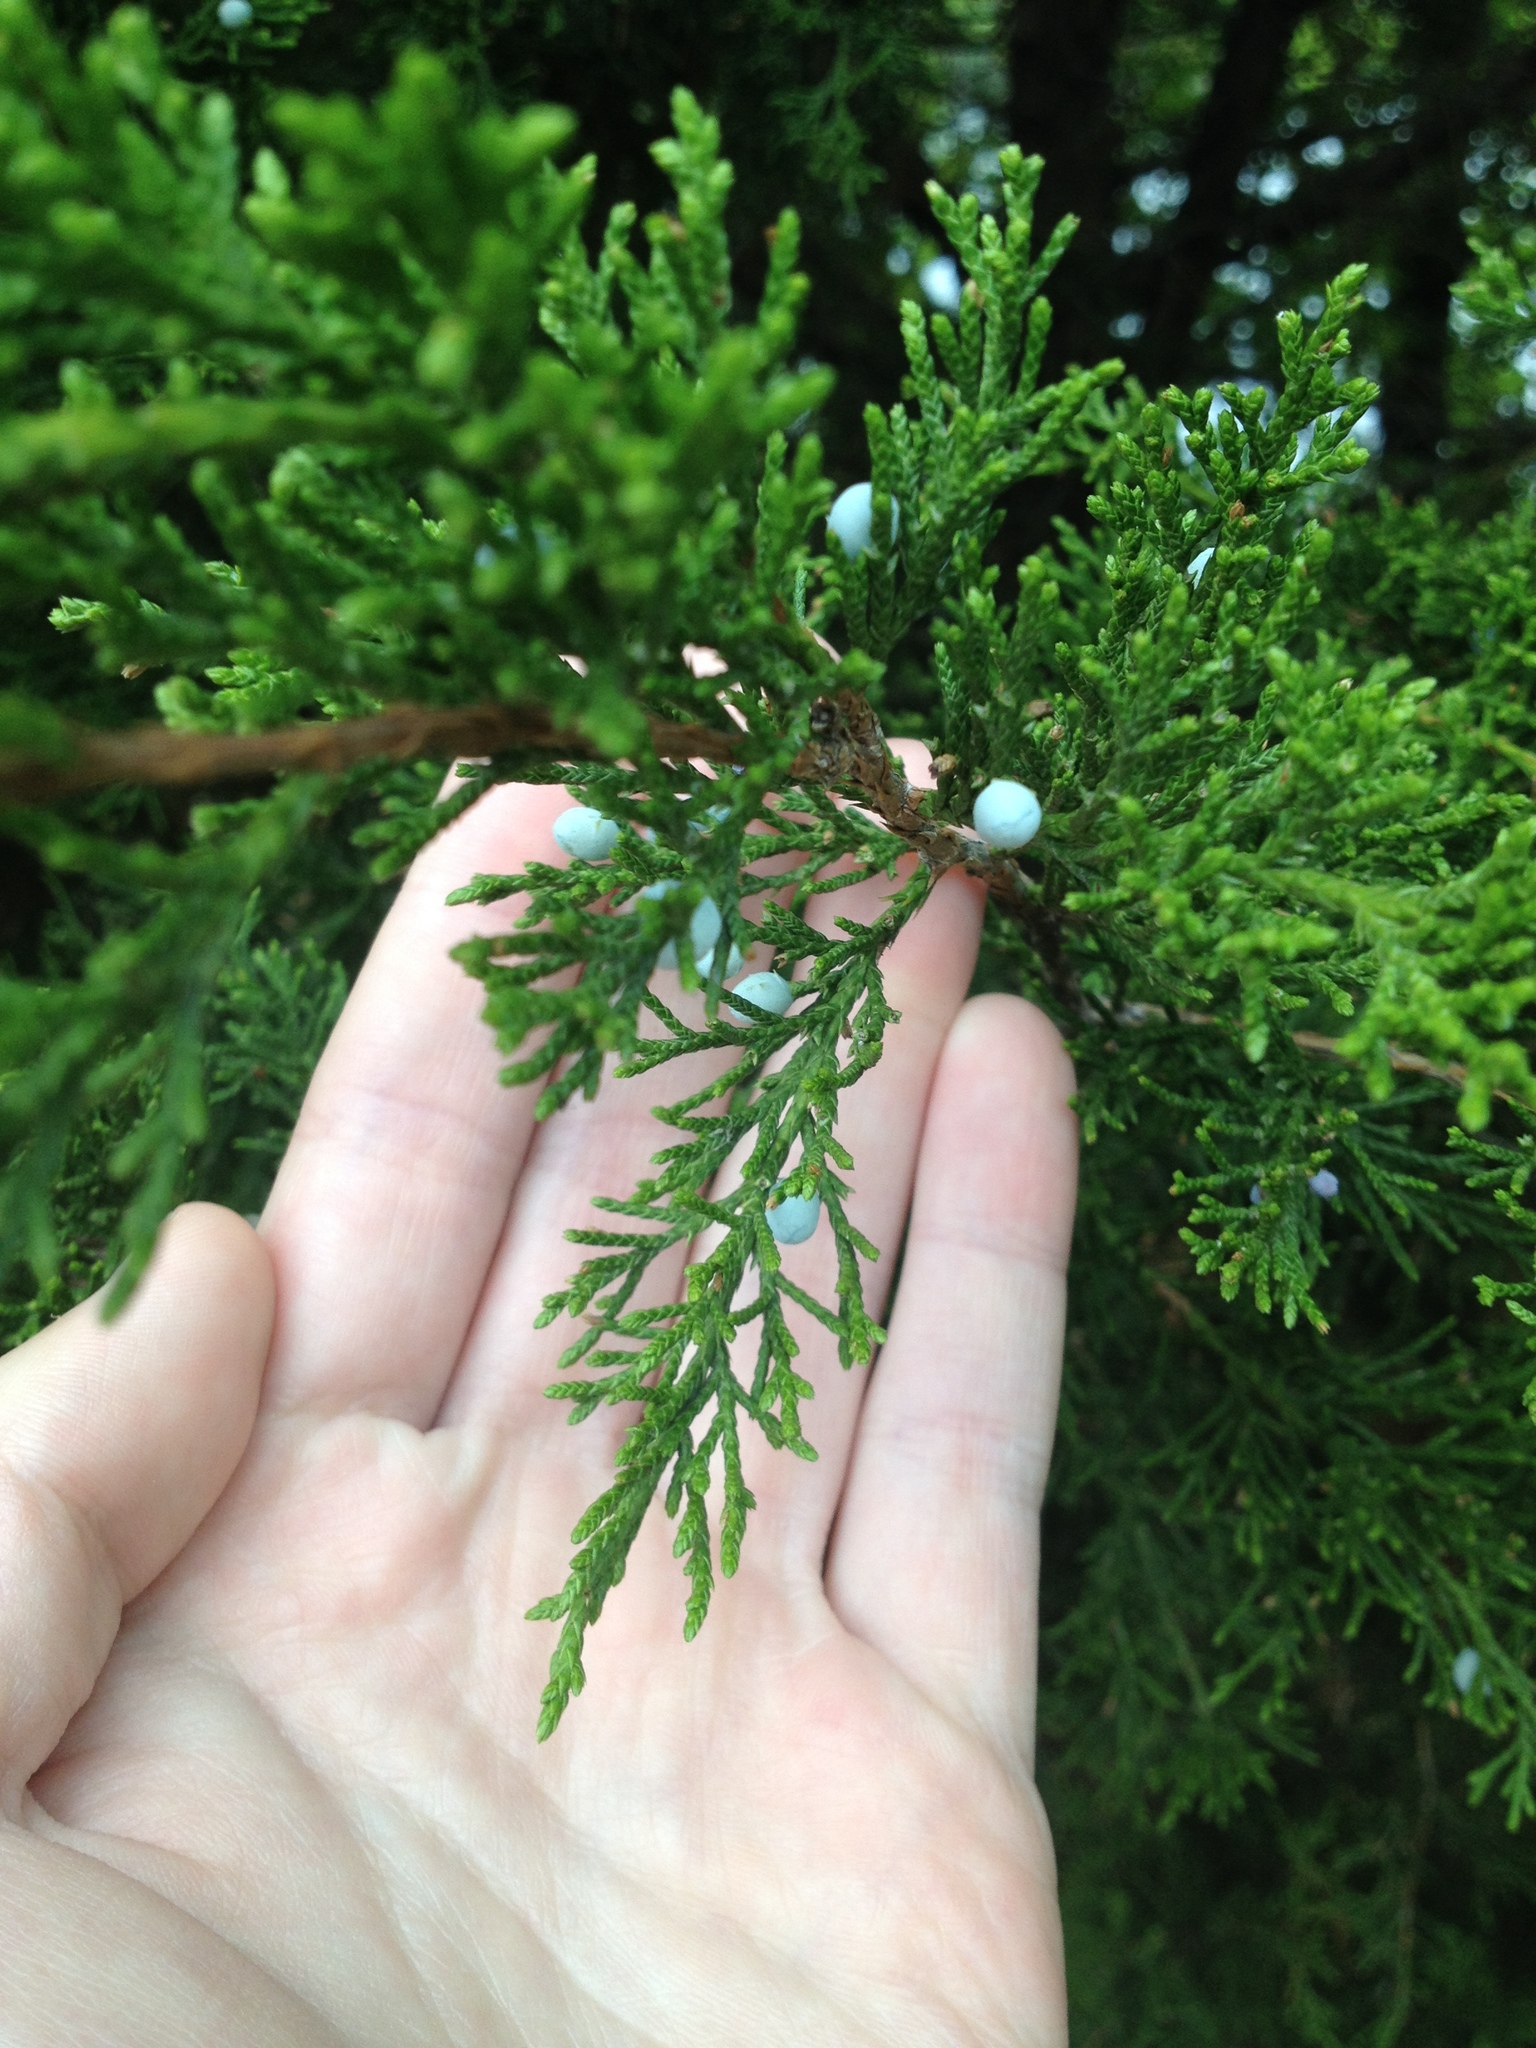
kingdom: Plantae
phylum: Tracheophyta
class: Pinopsida
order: Pinales
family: Cupressaceae
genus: Juniperus
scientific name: Juniperus virginiana
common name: Red juniper
